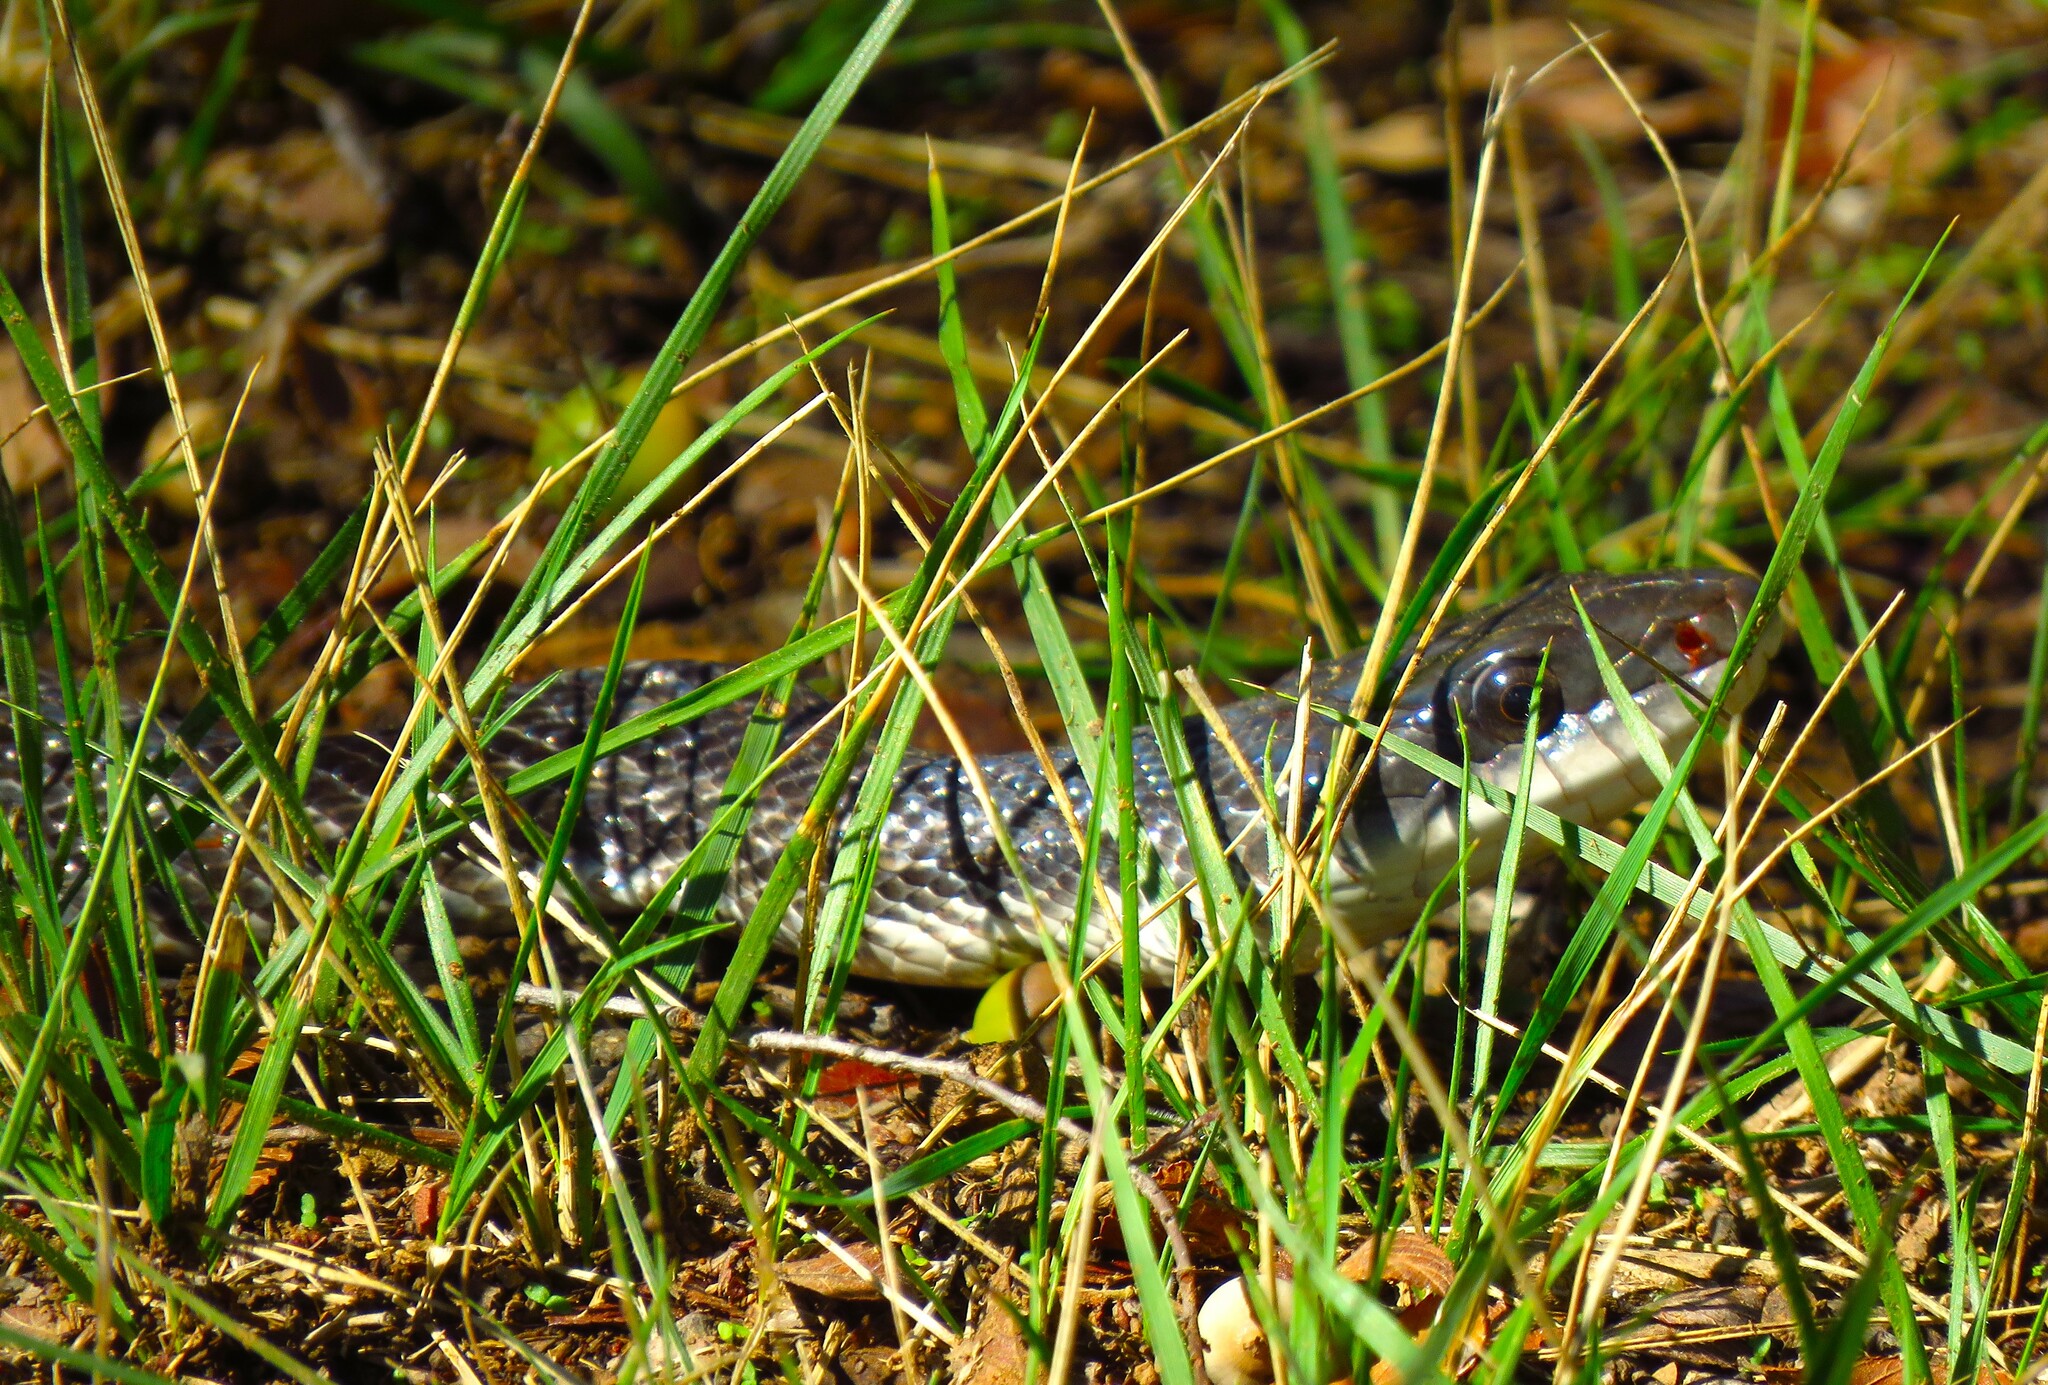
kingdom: Animalia
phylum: Chordata
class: Squamata
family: Colubridae
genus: Pantherophis
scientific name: Pantherophis obsoletus
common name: Black rat snake
